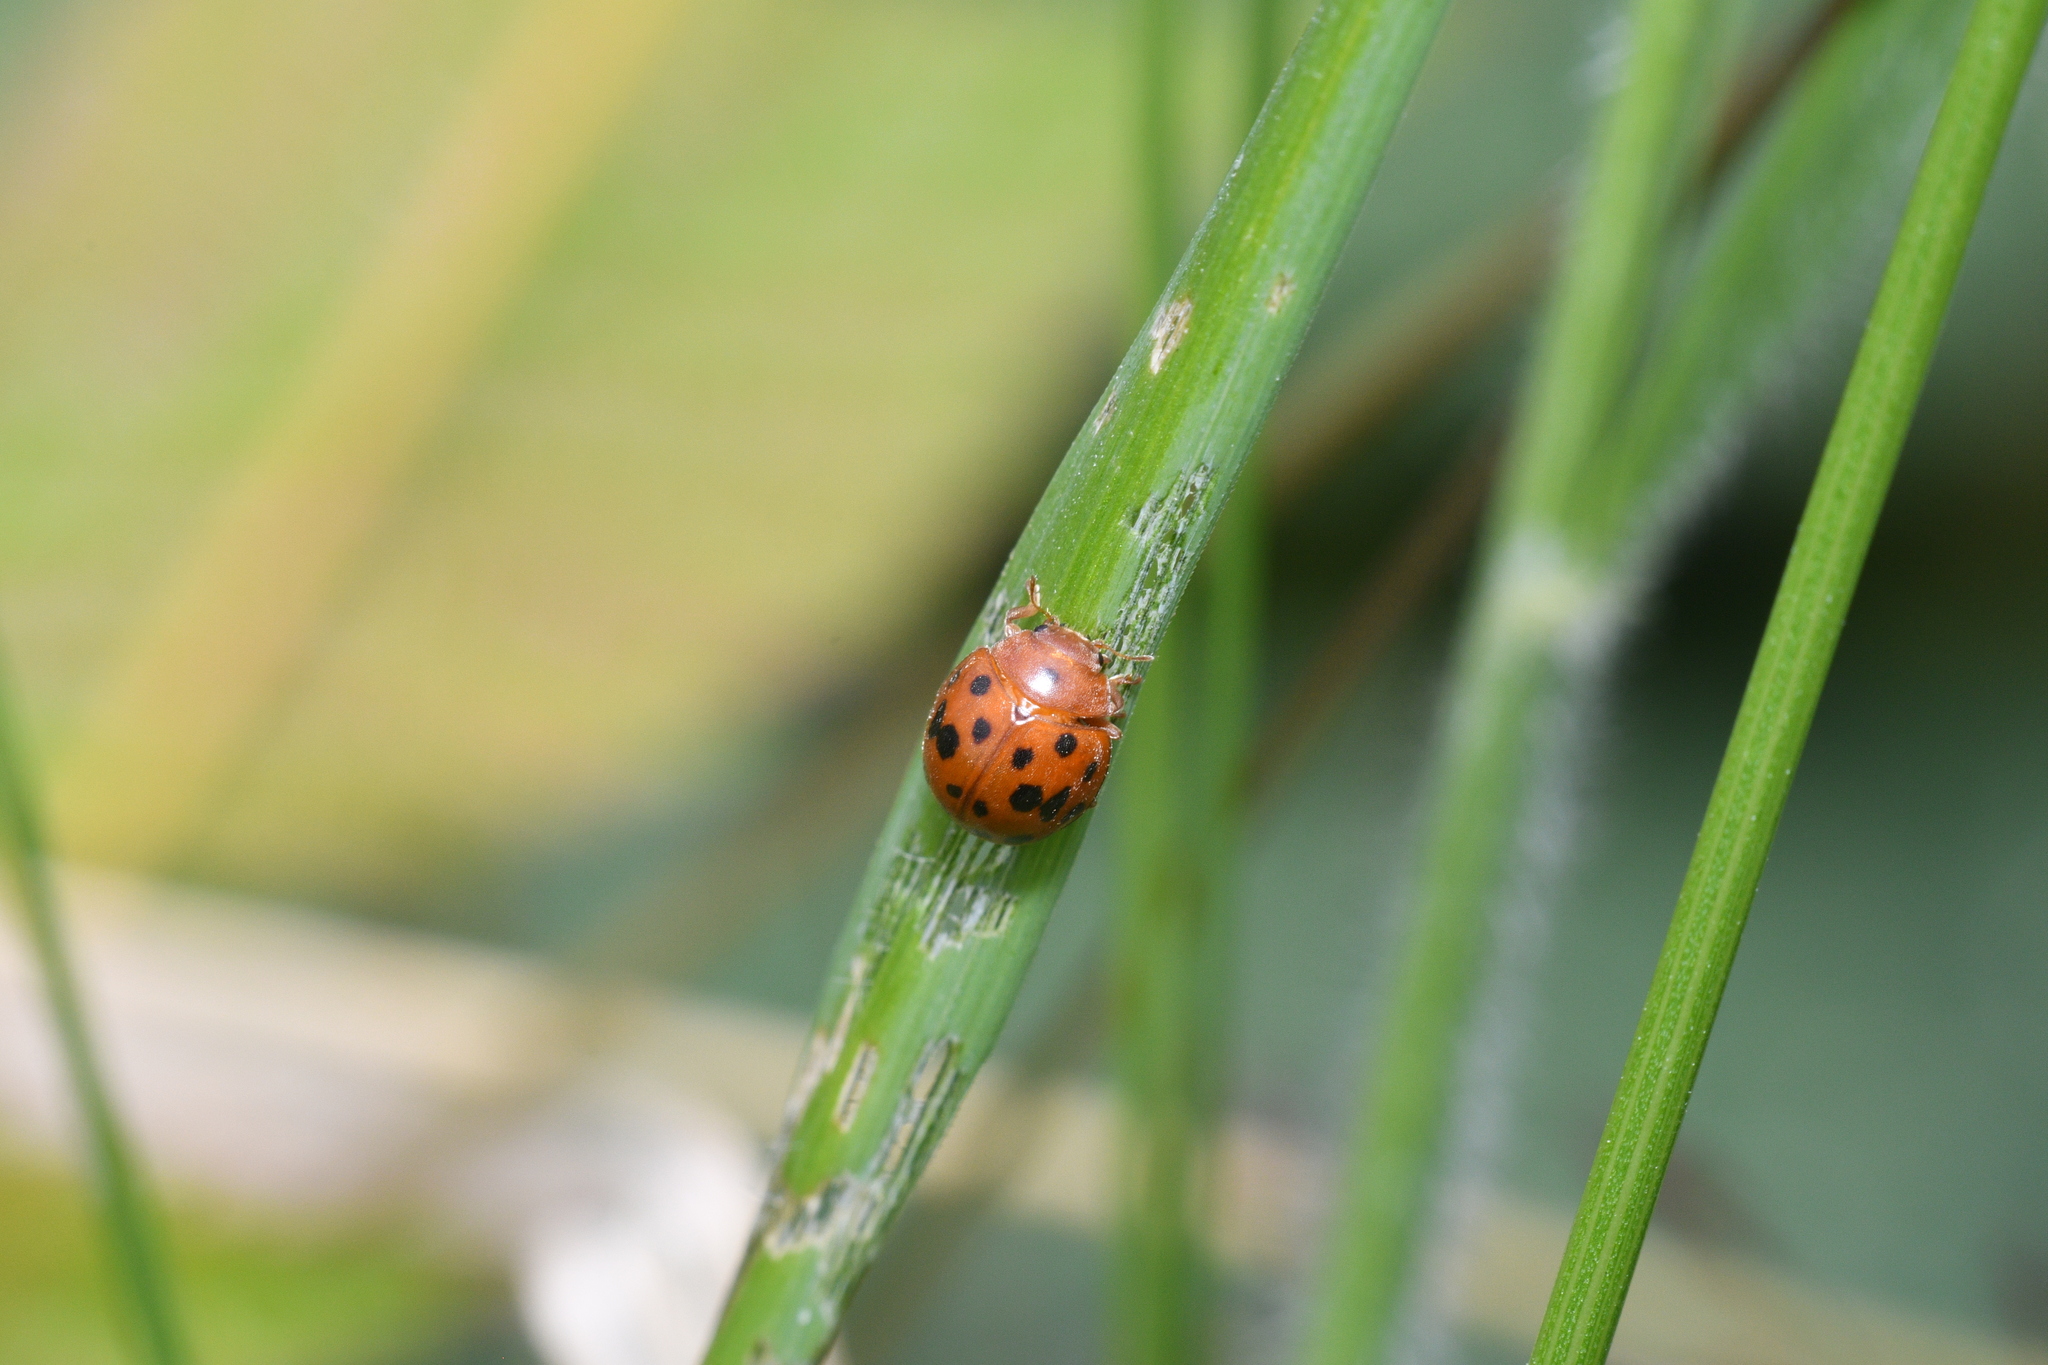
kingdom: Animalia
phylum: Arthropoda
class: Insecta
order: Coleoptera
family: Coccinellidae
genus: Subcoccinella
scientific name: Subcoccinella vigintiquatuorpunctata
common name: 24-spot ladybird
